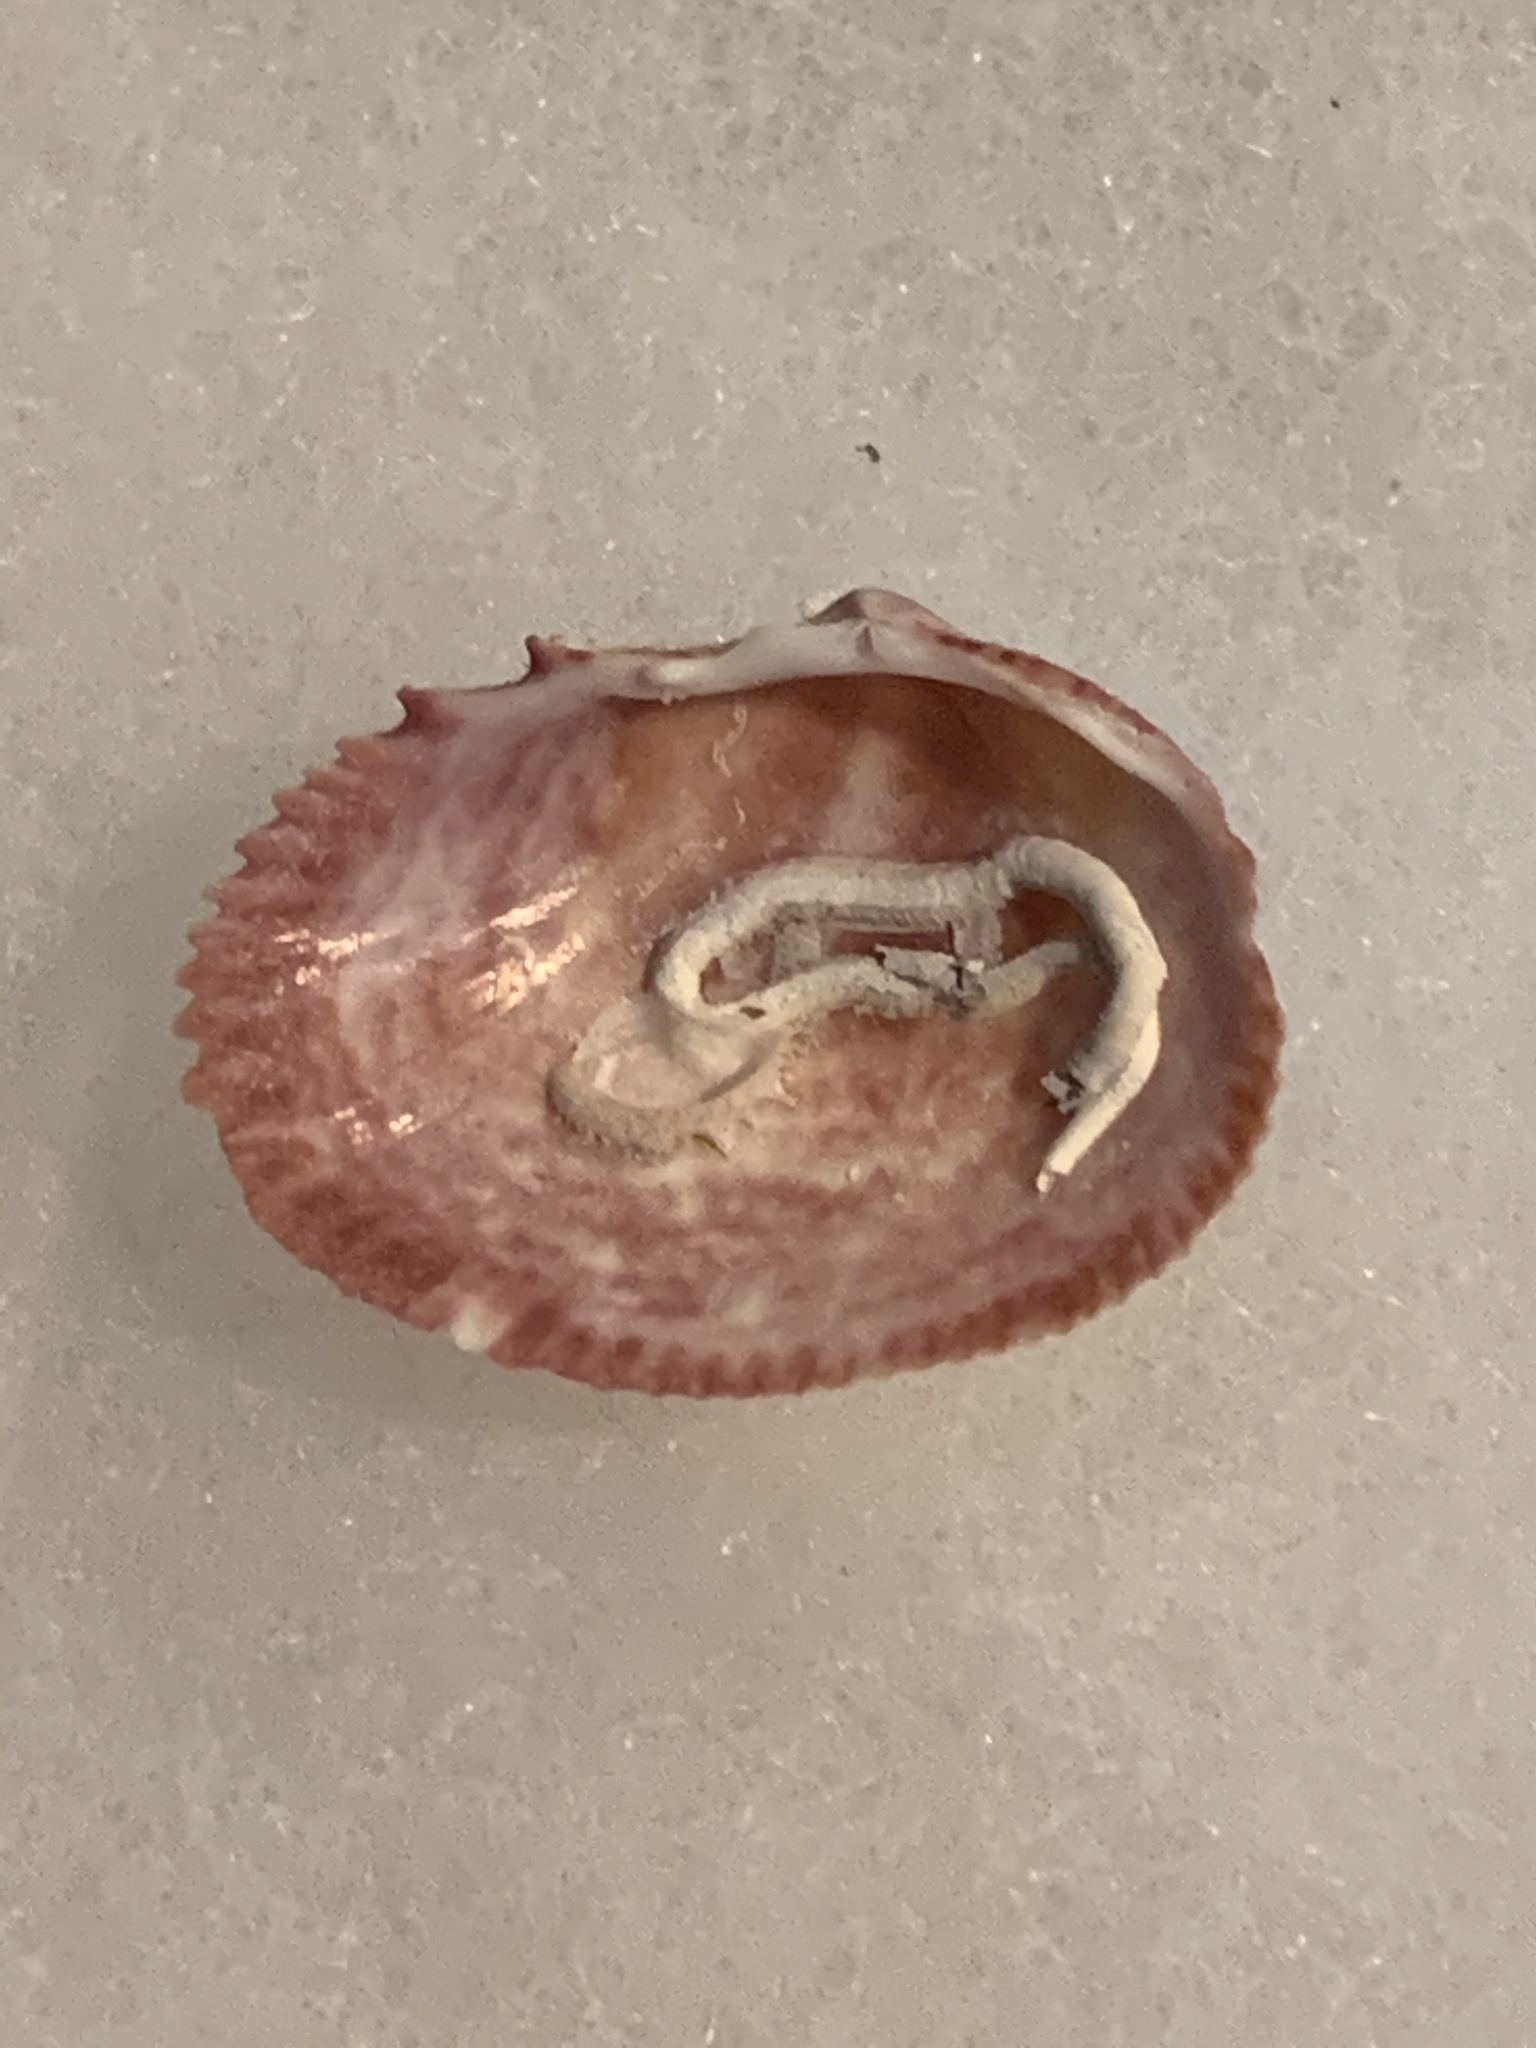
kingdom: Animalia
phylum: Mollusca
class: Bivalvia
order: Cardiida
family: Cardiidae
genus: Papyridea
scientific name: Papyridea lata
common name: Broad papercockle
